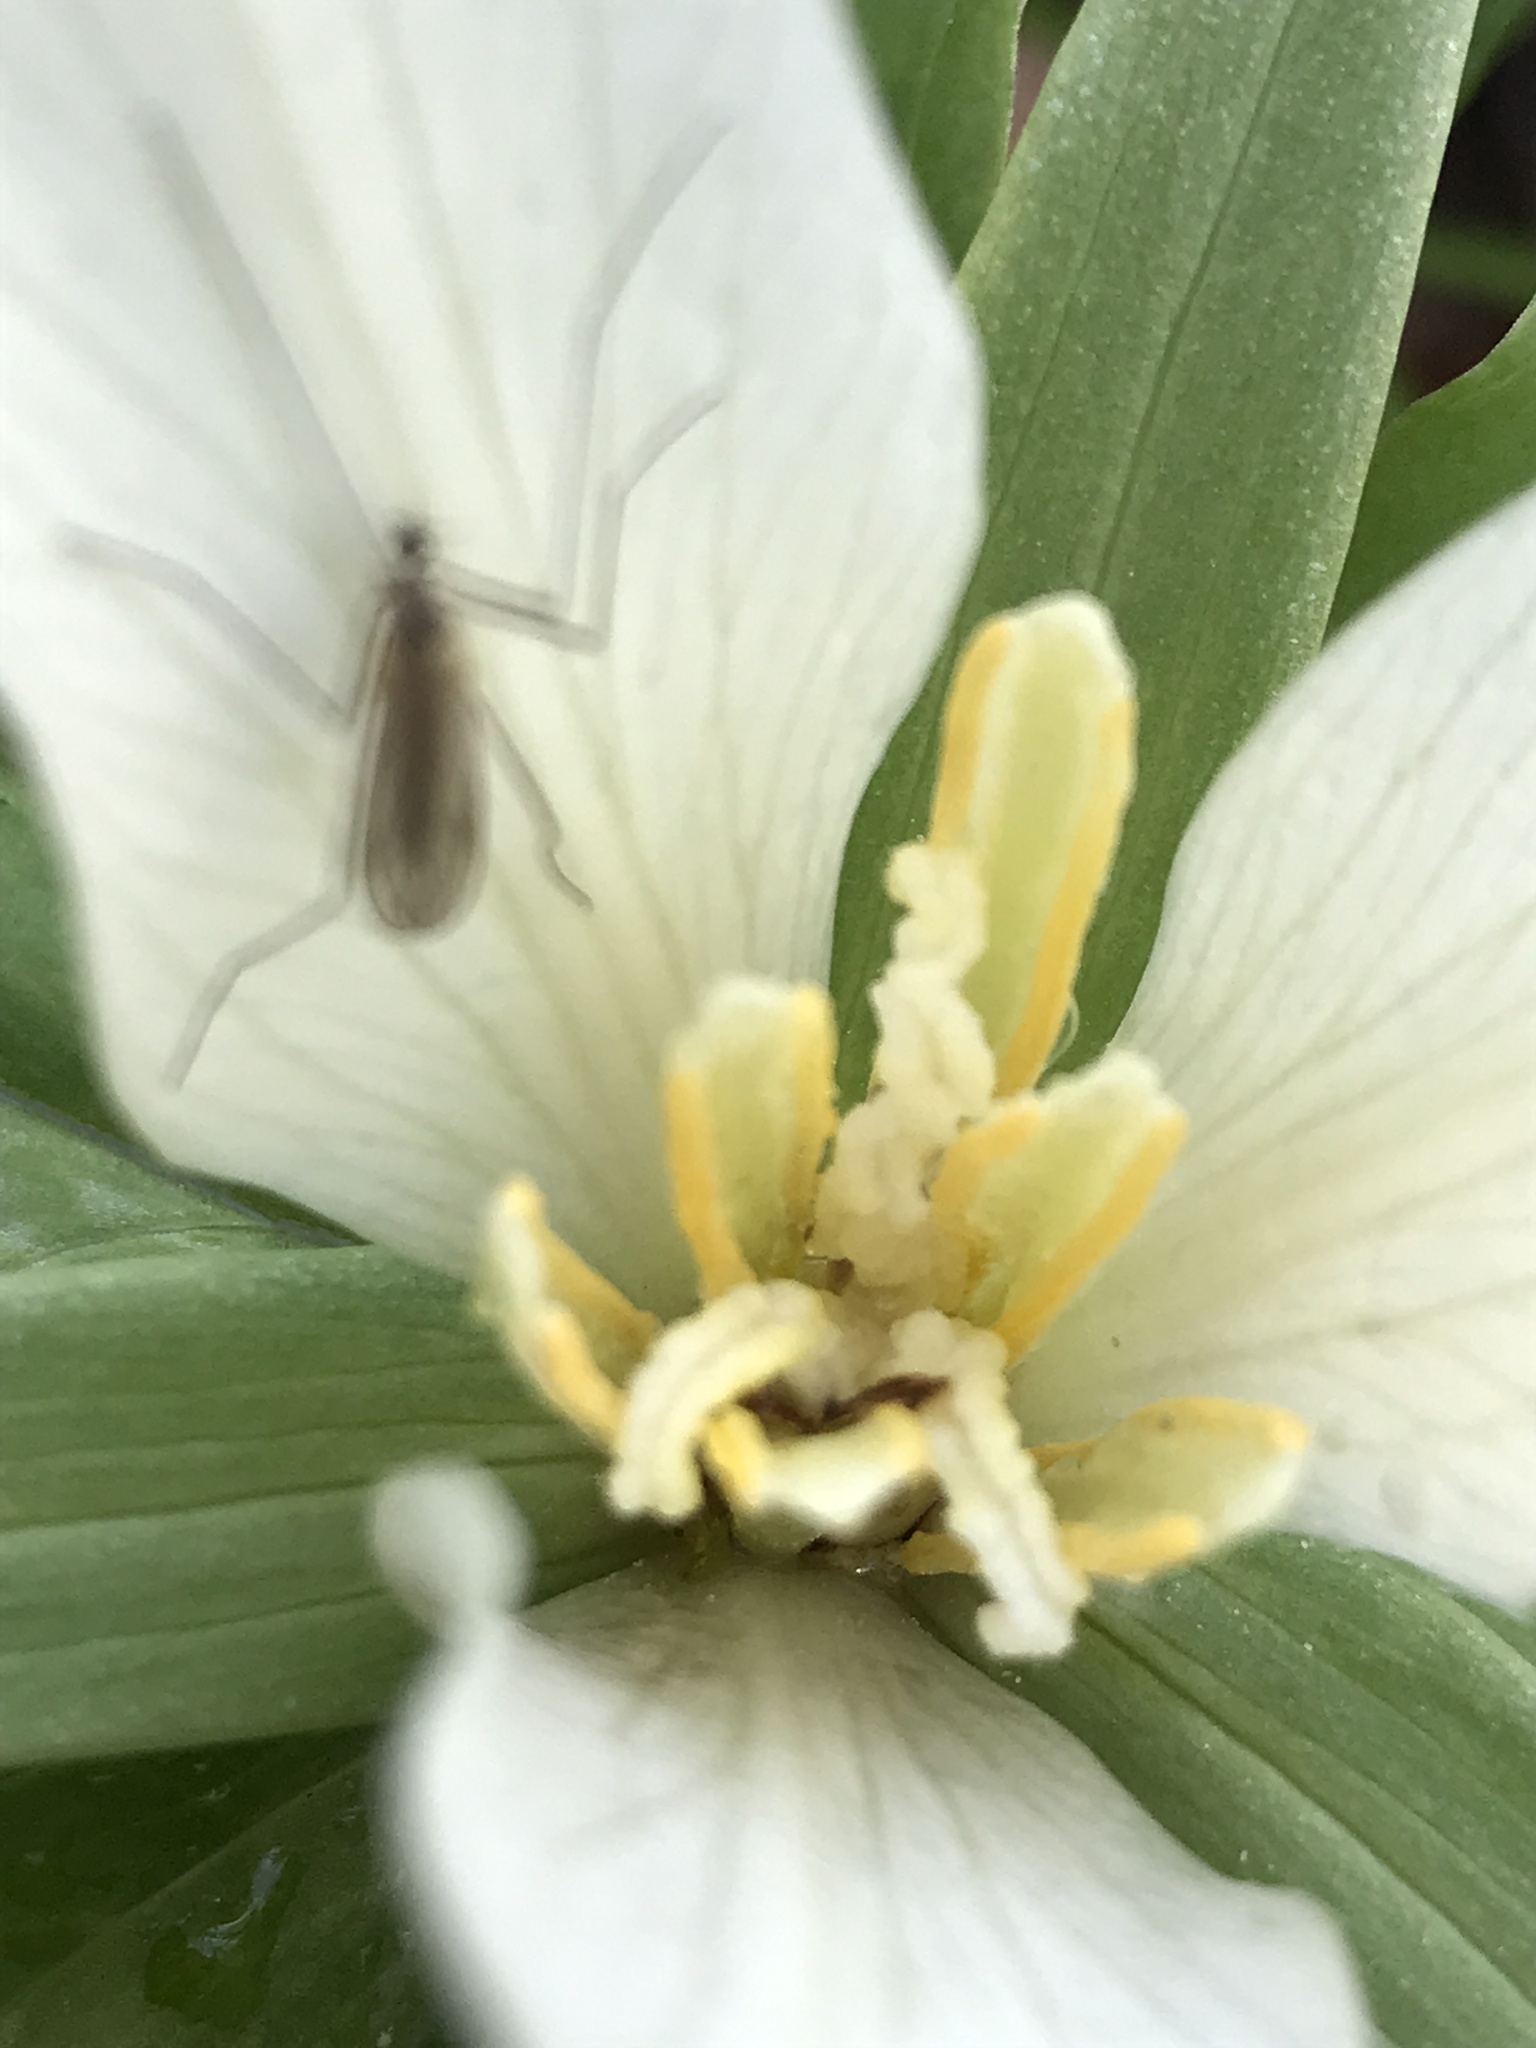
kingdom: Plantae
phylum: Tracheophyta
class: Liliopsida
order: Liliales
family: Melanthiaceae
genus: Trillium
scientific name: Trillium albidum
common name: Freeman's trillium
